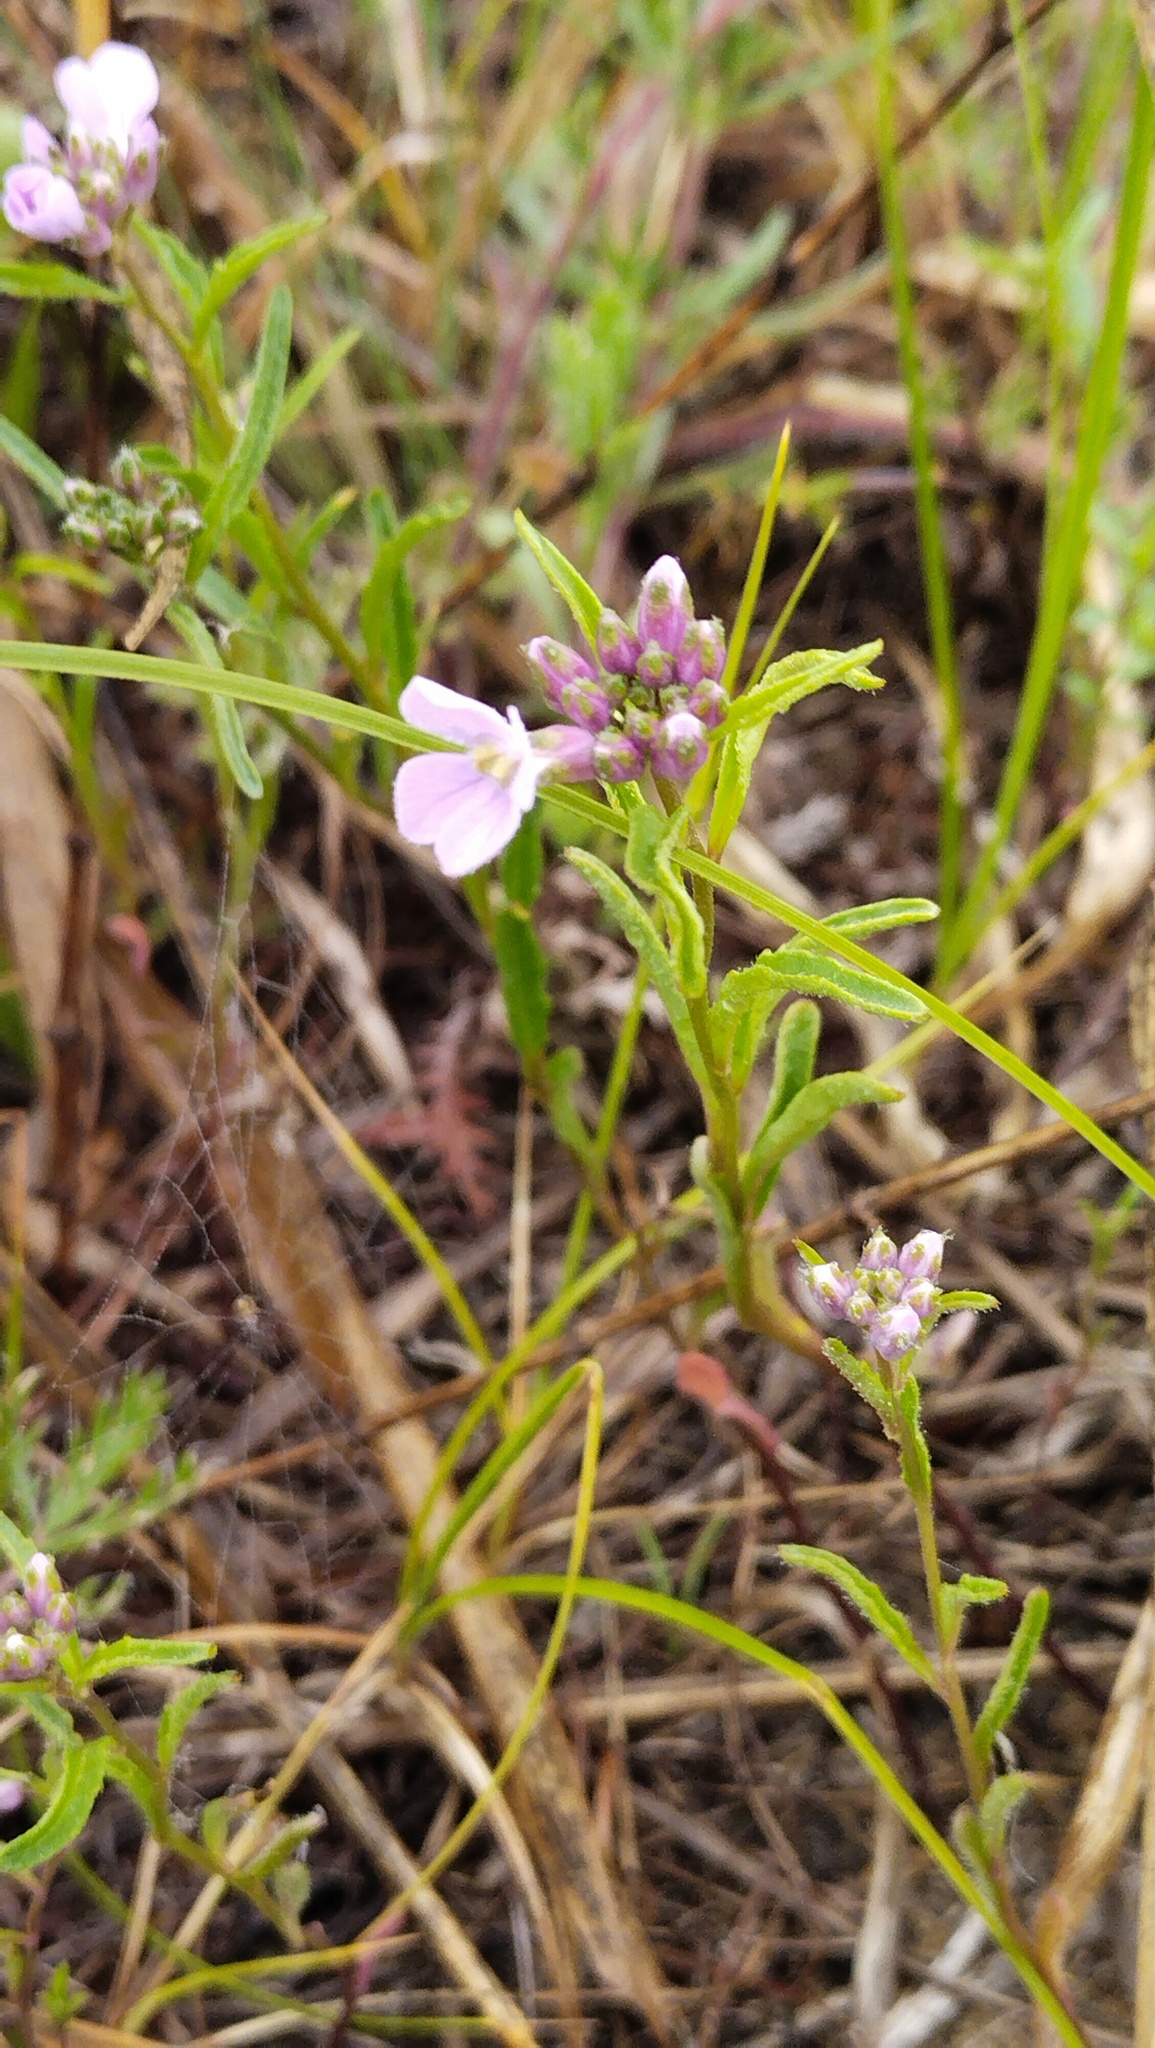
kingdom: Plantae
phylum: Tracheophyta
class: Magnoliopsida
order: Brassicales
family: Brassicaceae
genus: Dontostemon
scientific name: Dontostemon dentatus
